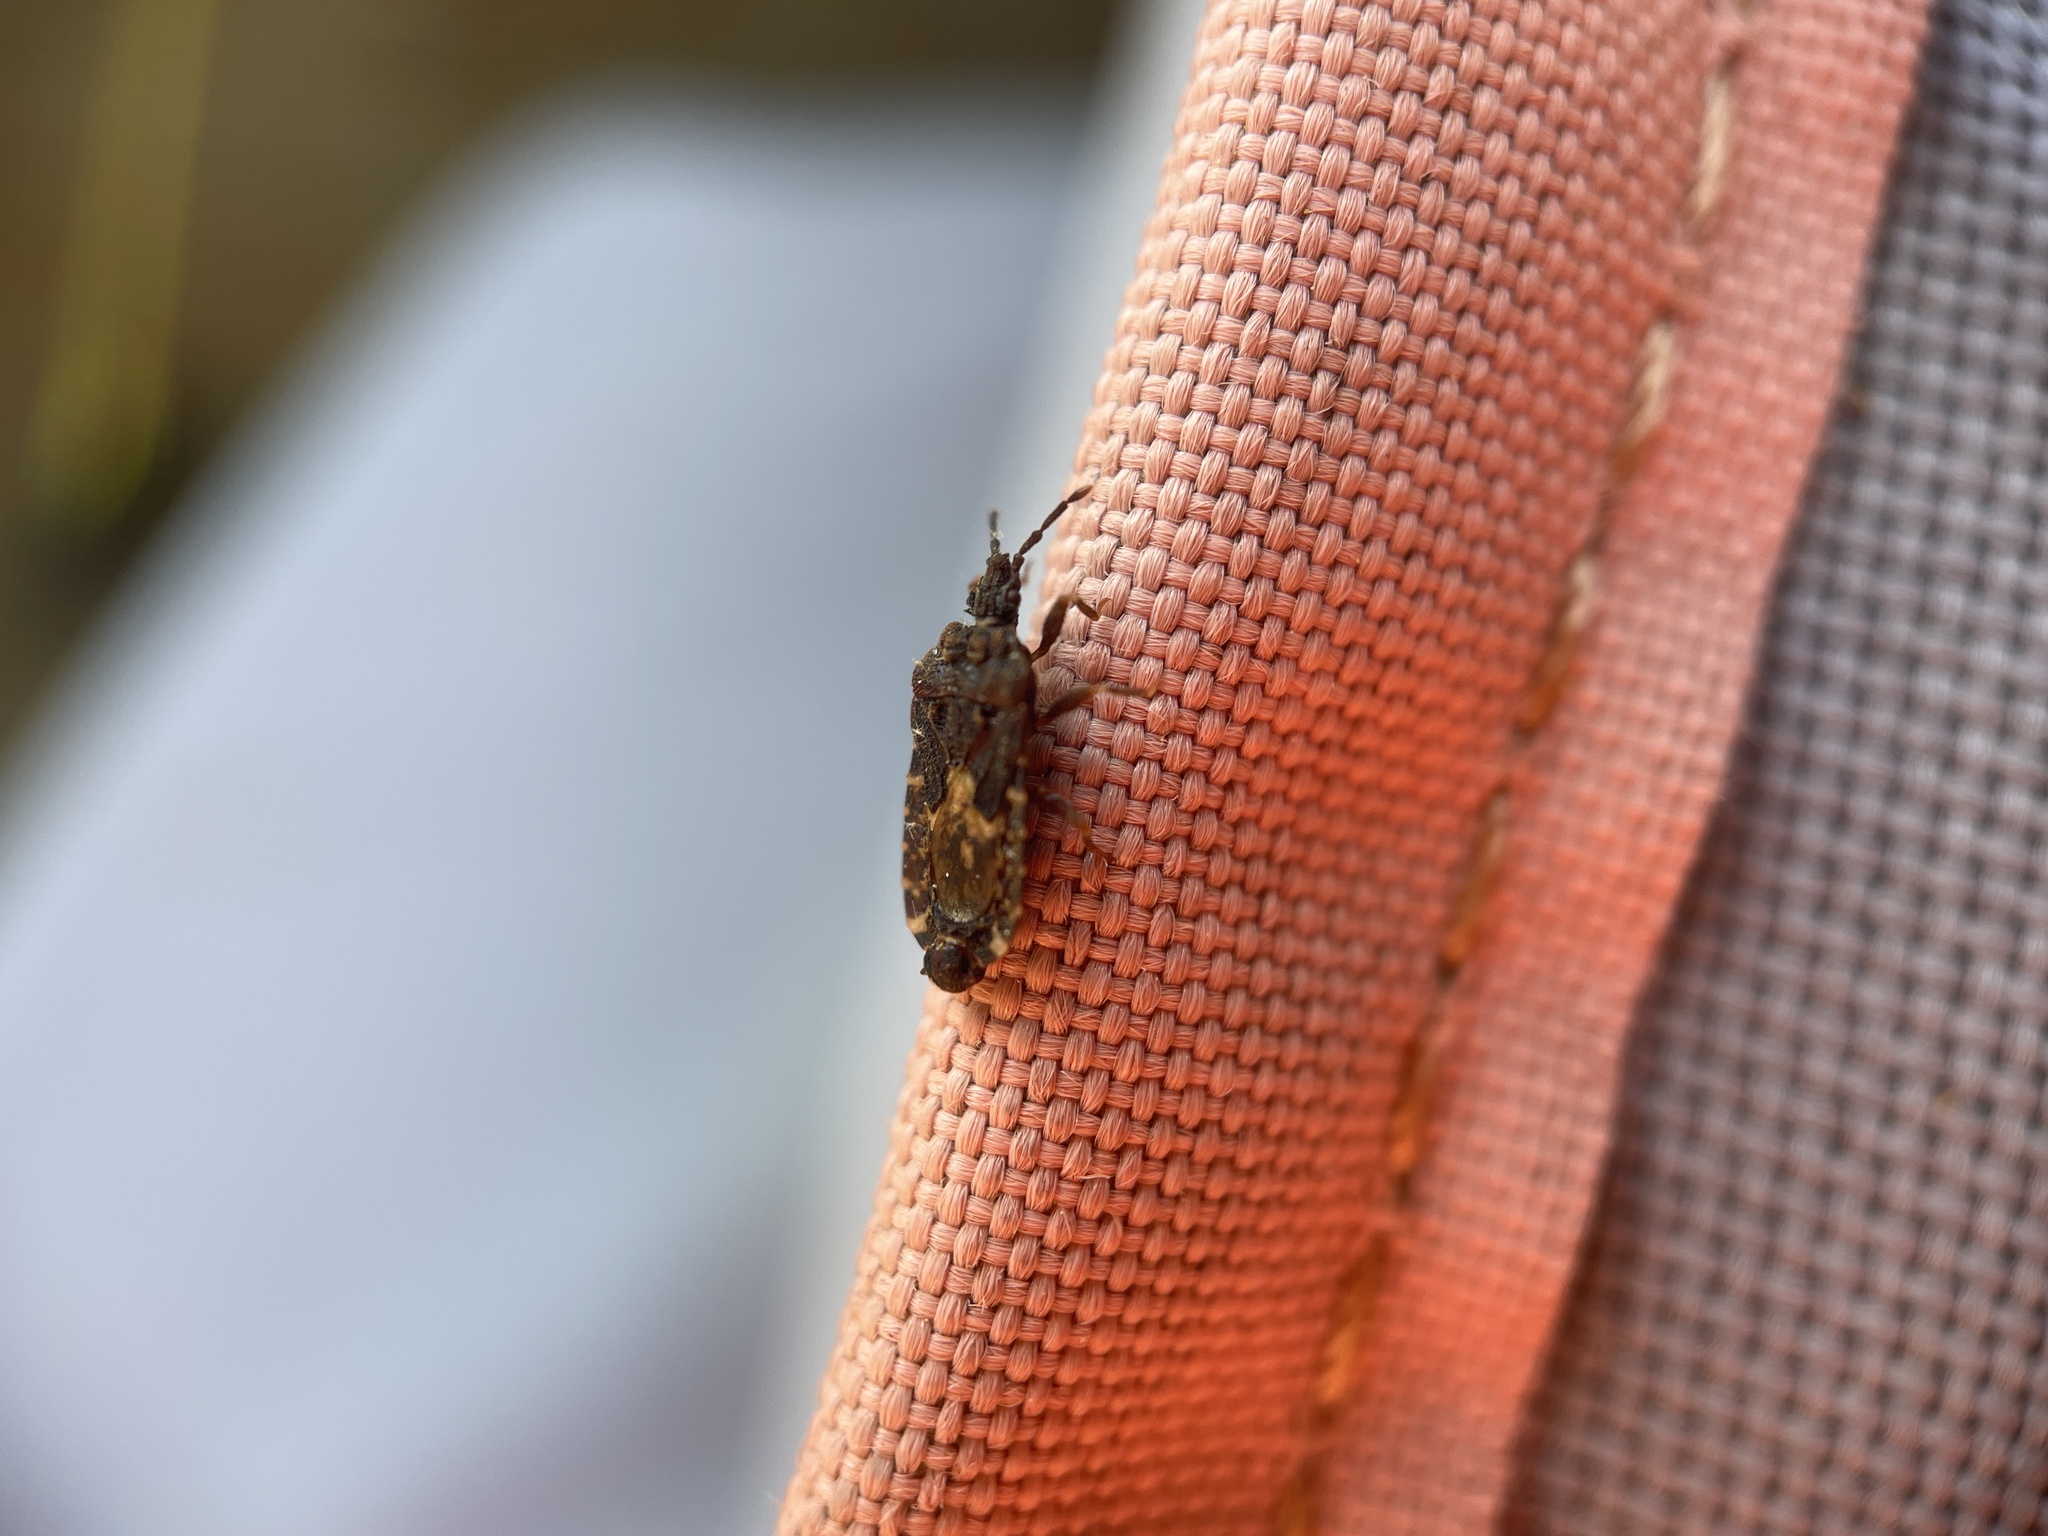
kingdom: Animalia
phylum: Arthropoda
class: Insecta
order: Hemiptera
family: Aradidae
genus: Mezira
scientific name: Mezira
